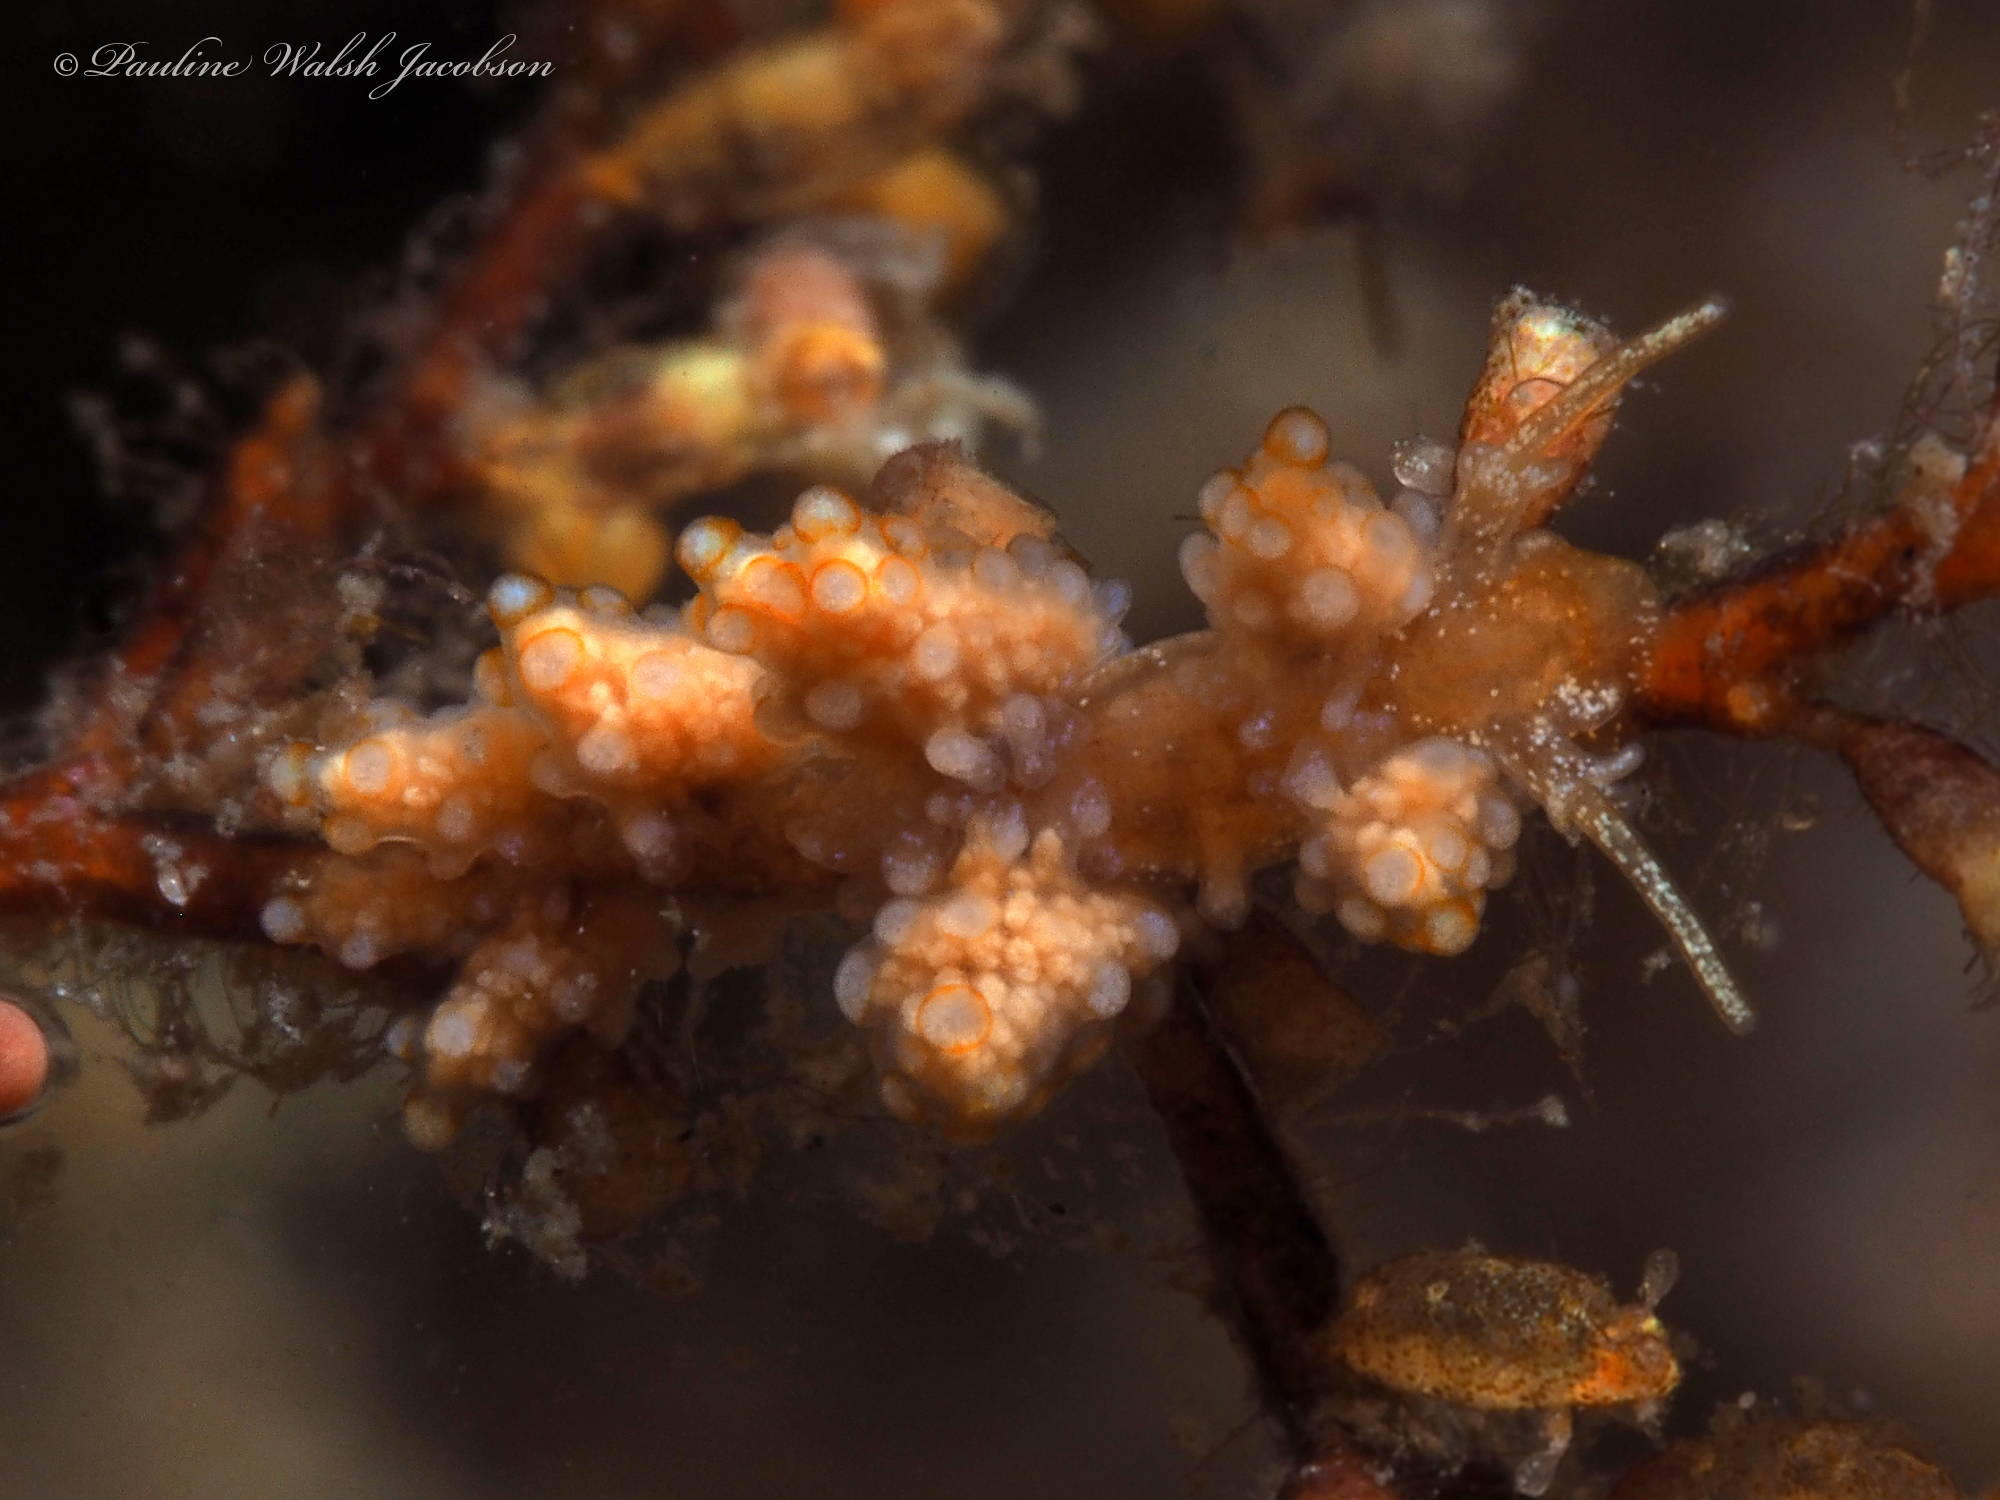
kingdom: Animalia
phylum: Mollusca
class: Gastropoda
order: Nudibranchia
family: Dotidae
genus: Doto
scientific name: Doto torrelavega
